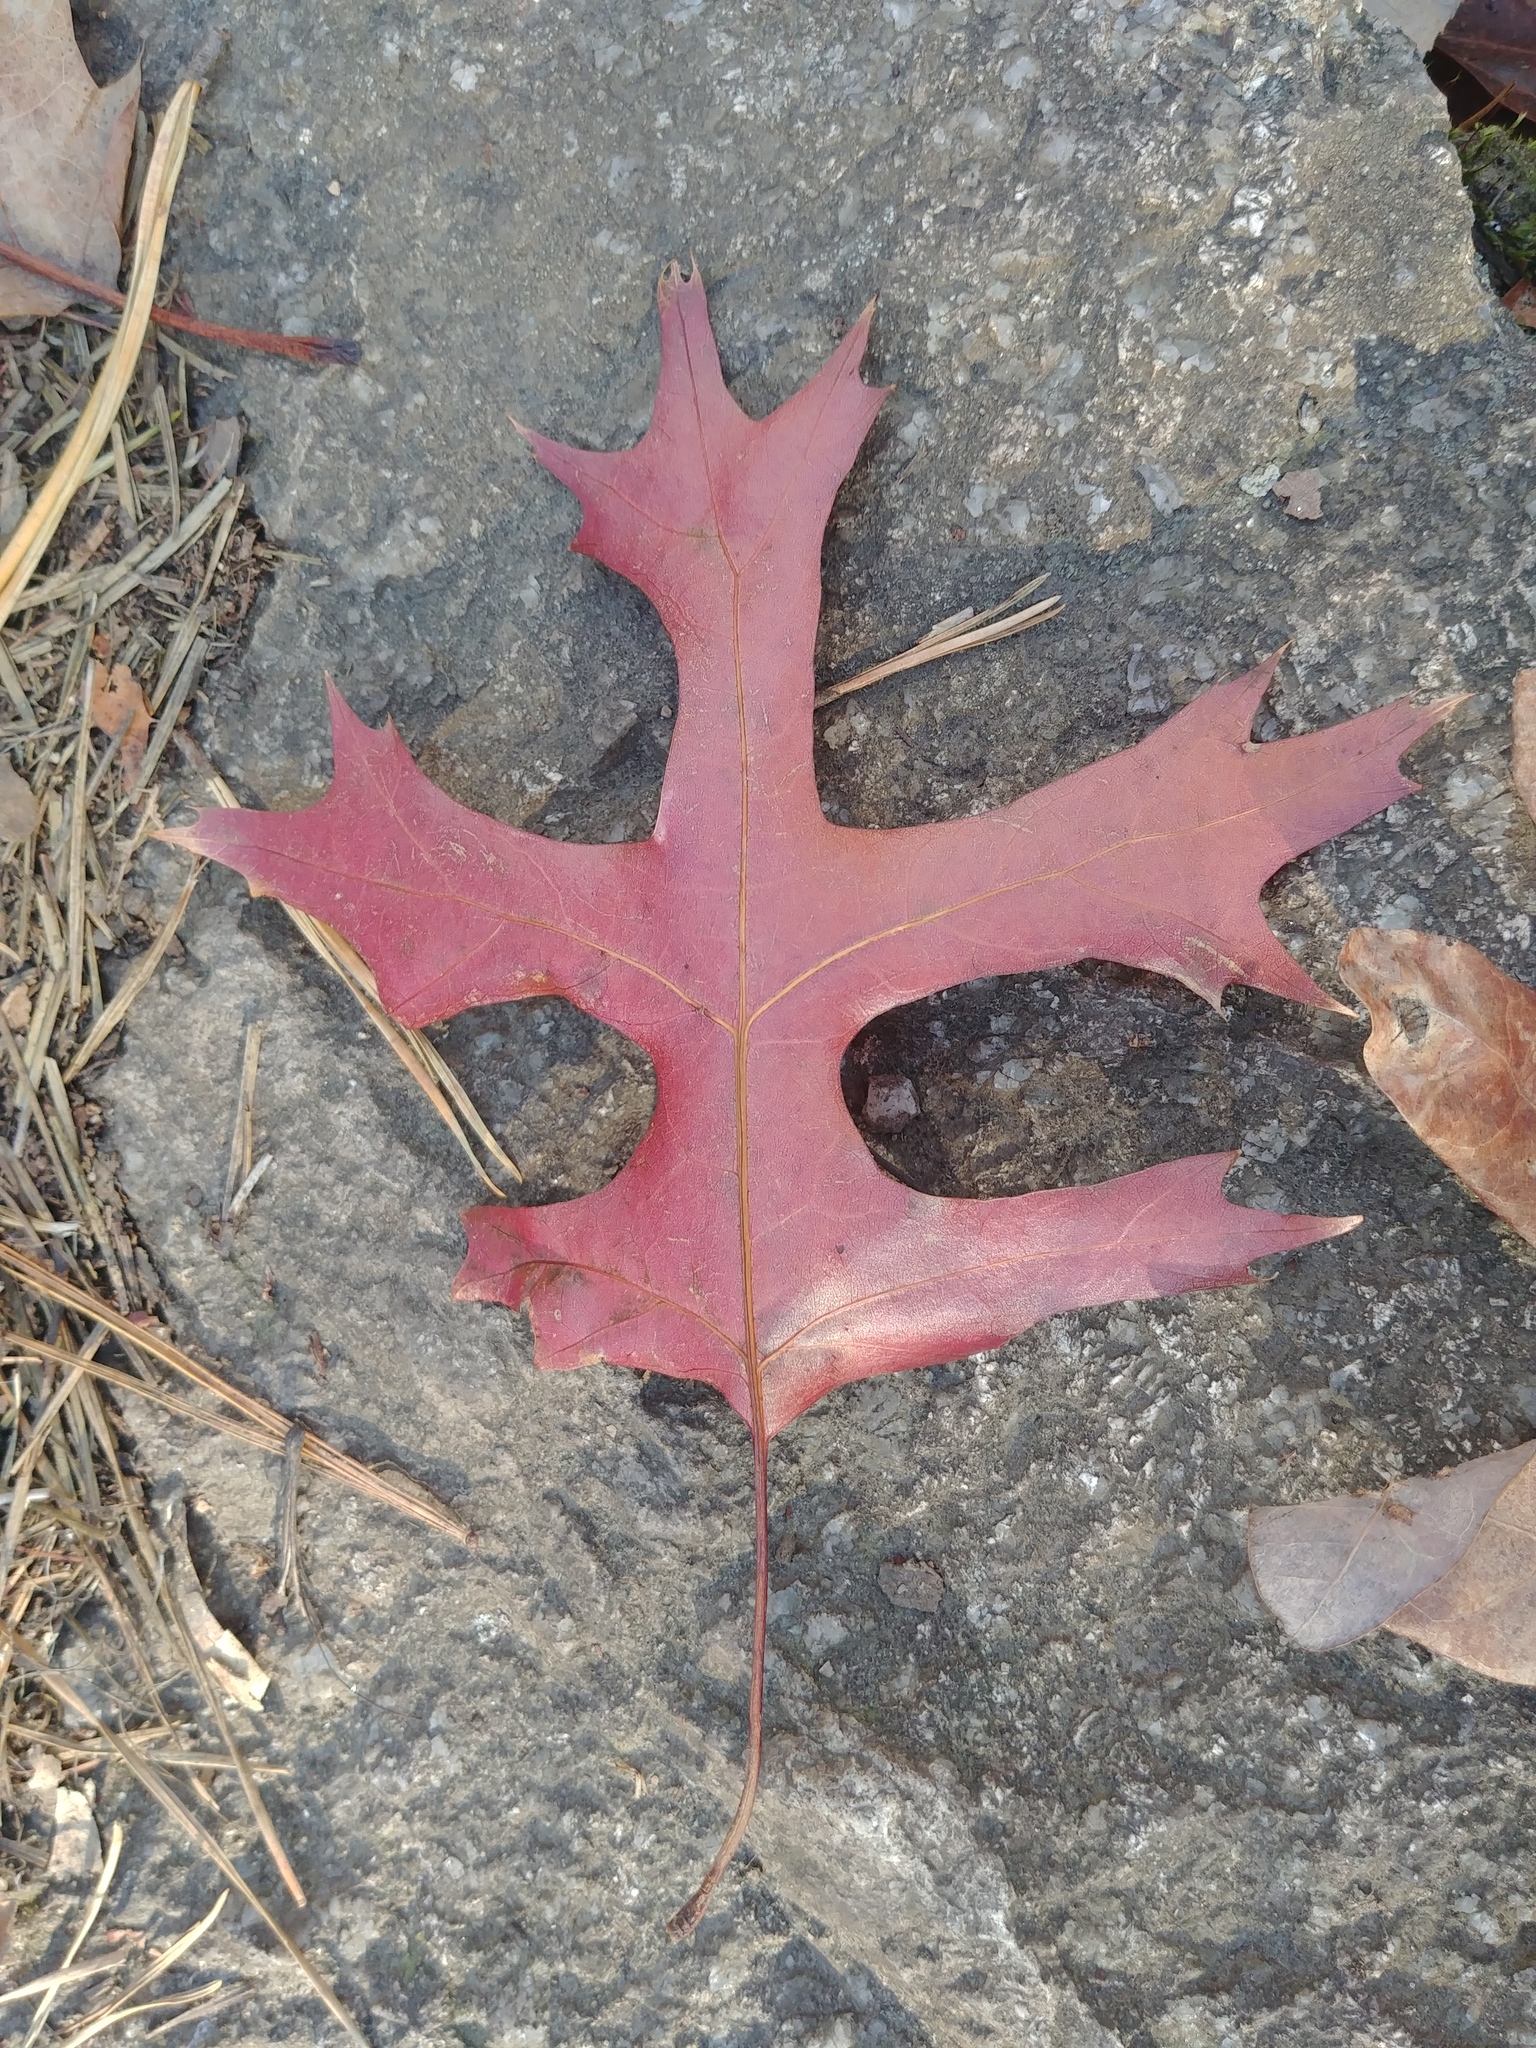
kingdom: Plantae
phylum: Tracheophyta
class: Magnoliopsida
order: Fagales
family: Fagaceae
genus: Quercus
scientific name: Quercus coccinea
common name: Scarlet oak
